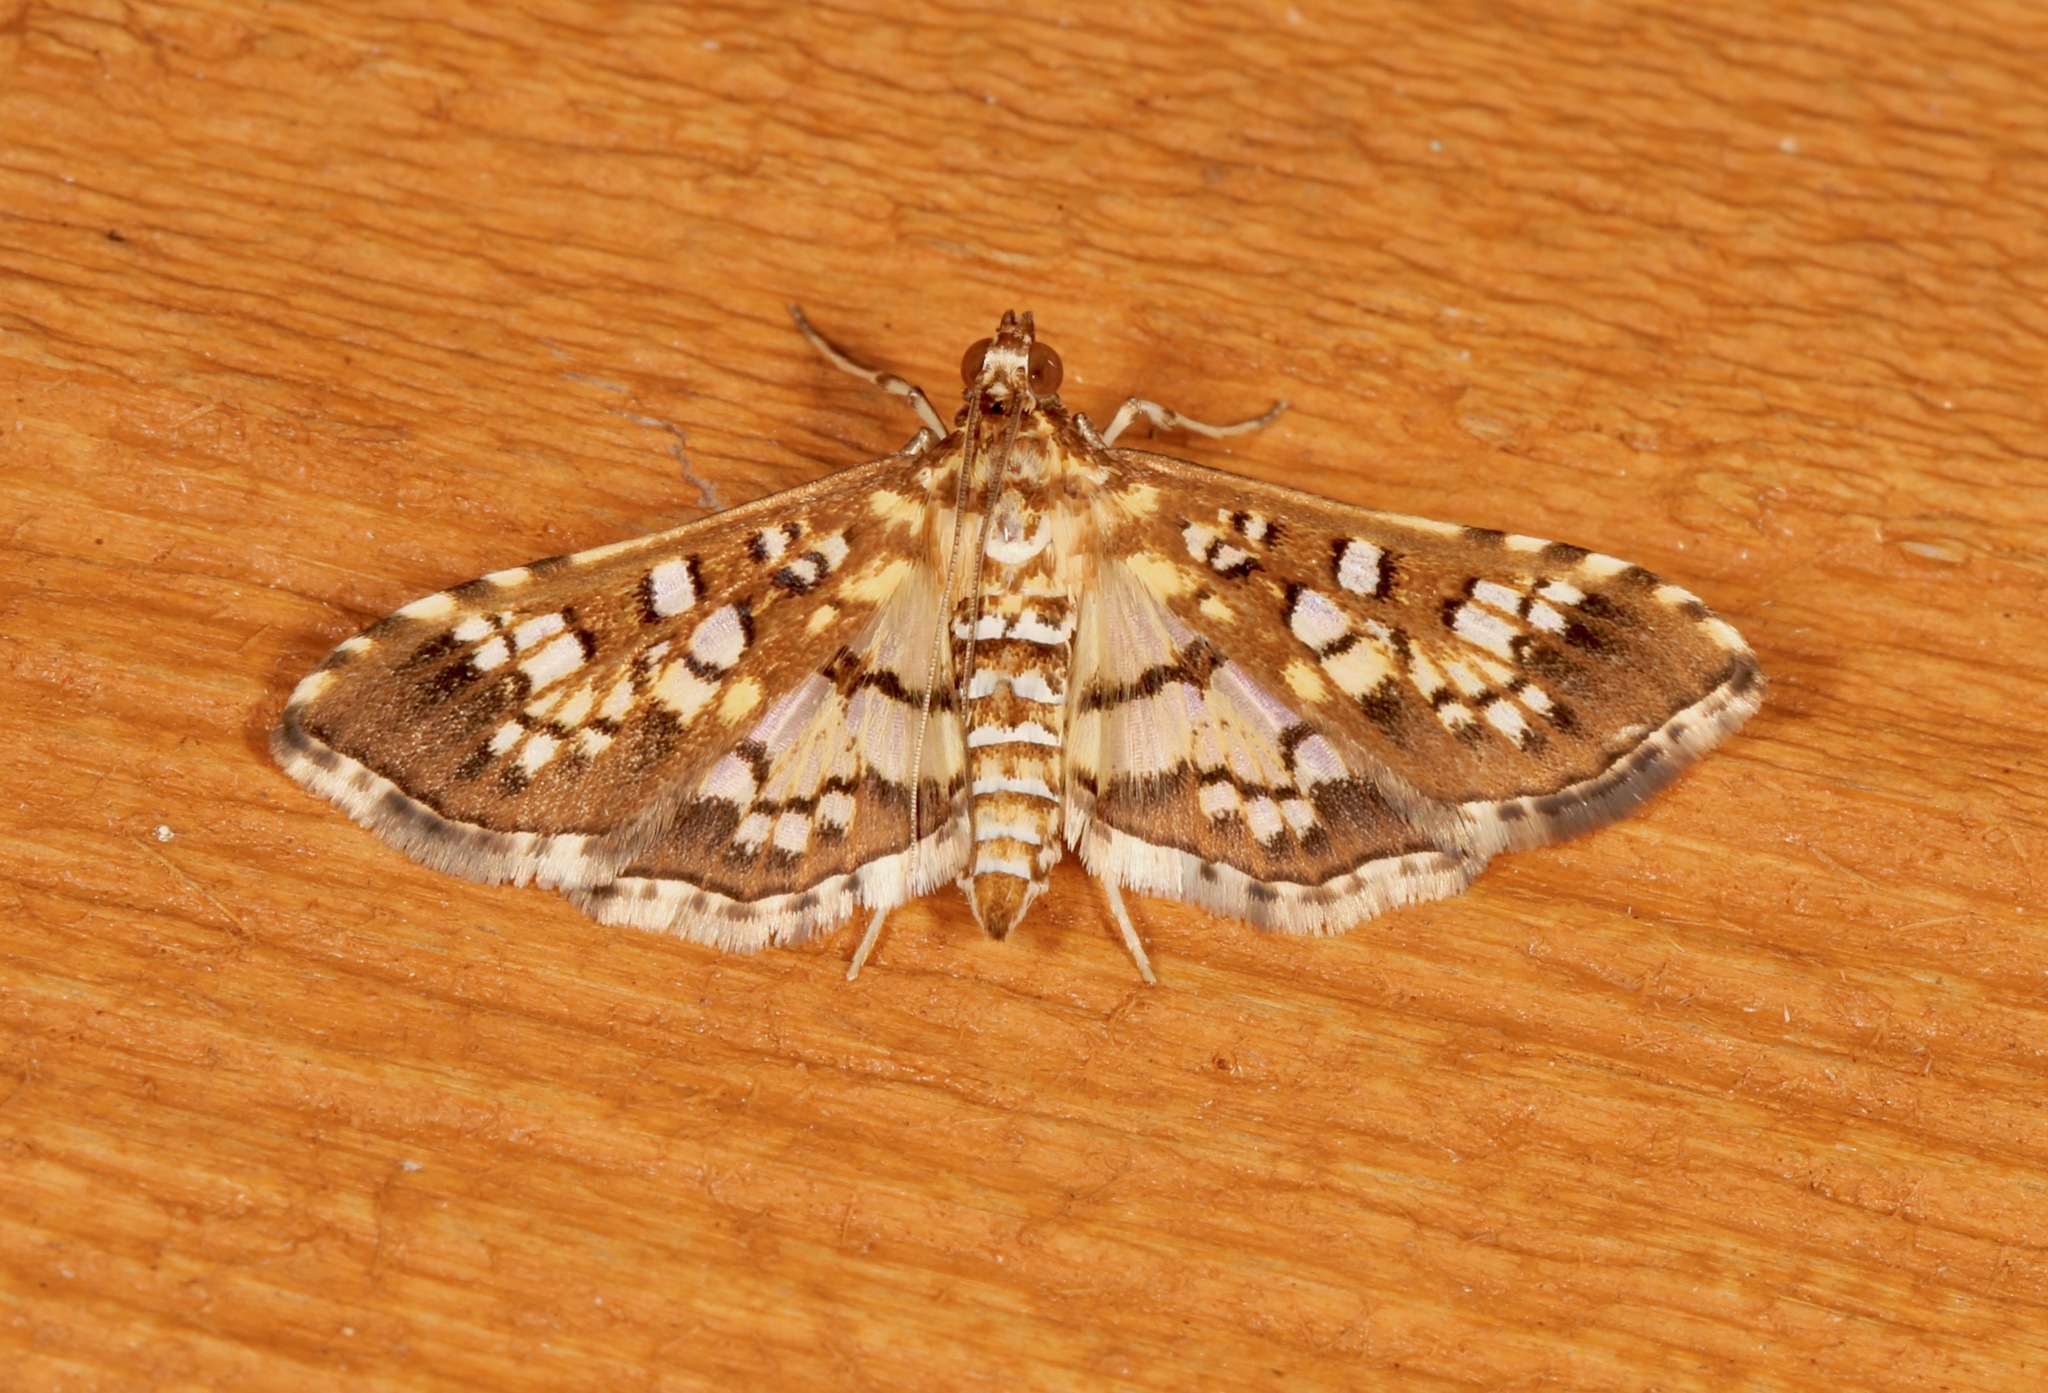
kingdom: Animalia
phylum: Arthropoda
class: Insecta
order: Lepidoptera
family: Crambidae
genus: Samea
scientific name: Samea ecclesialis
